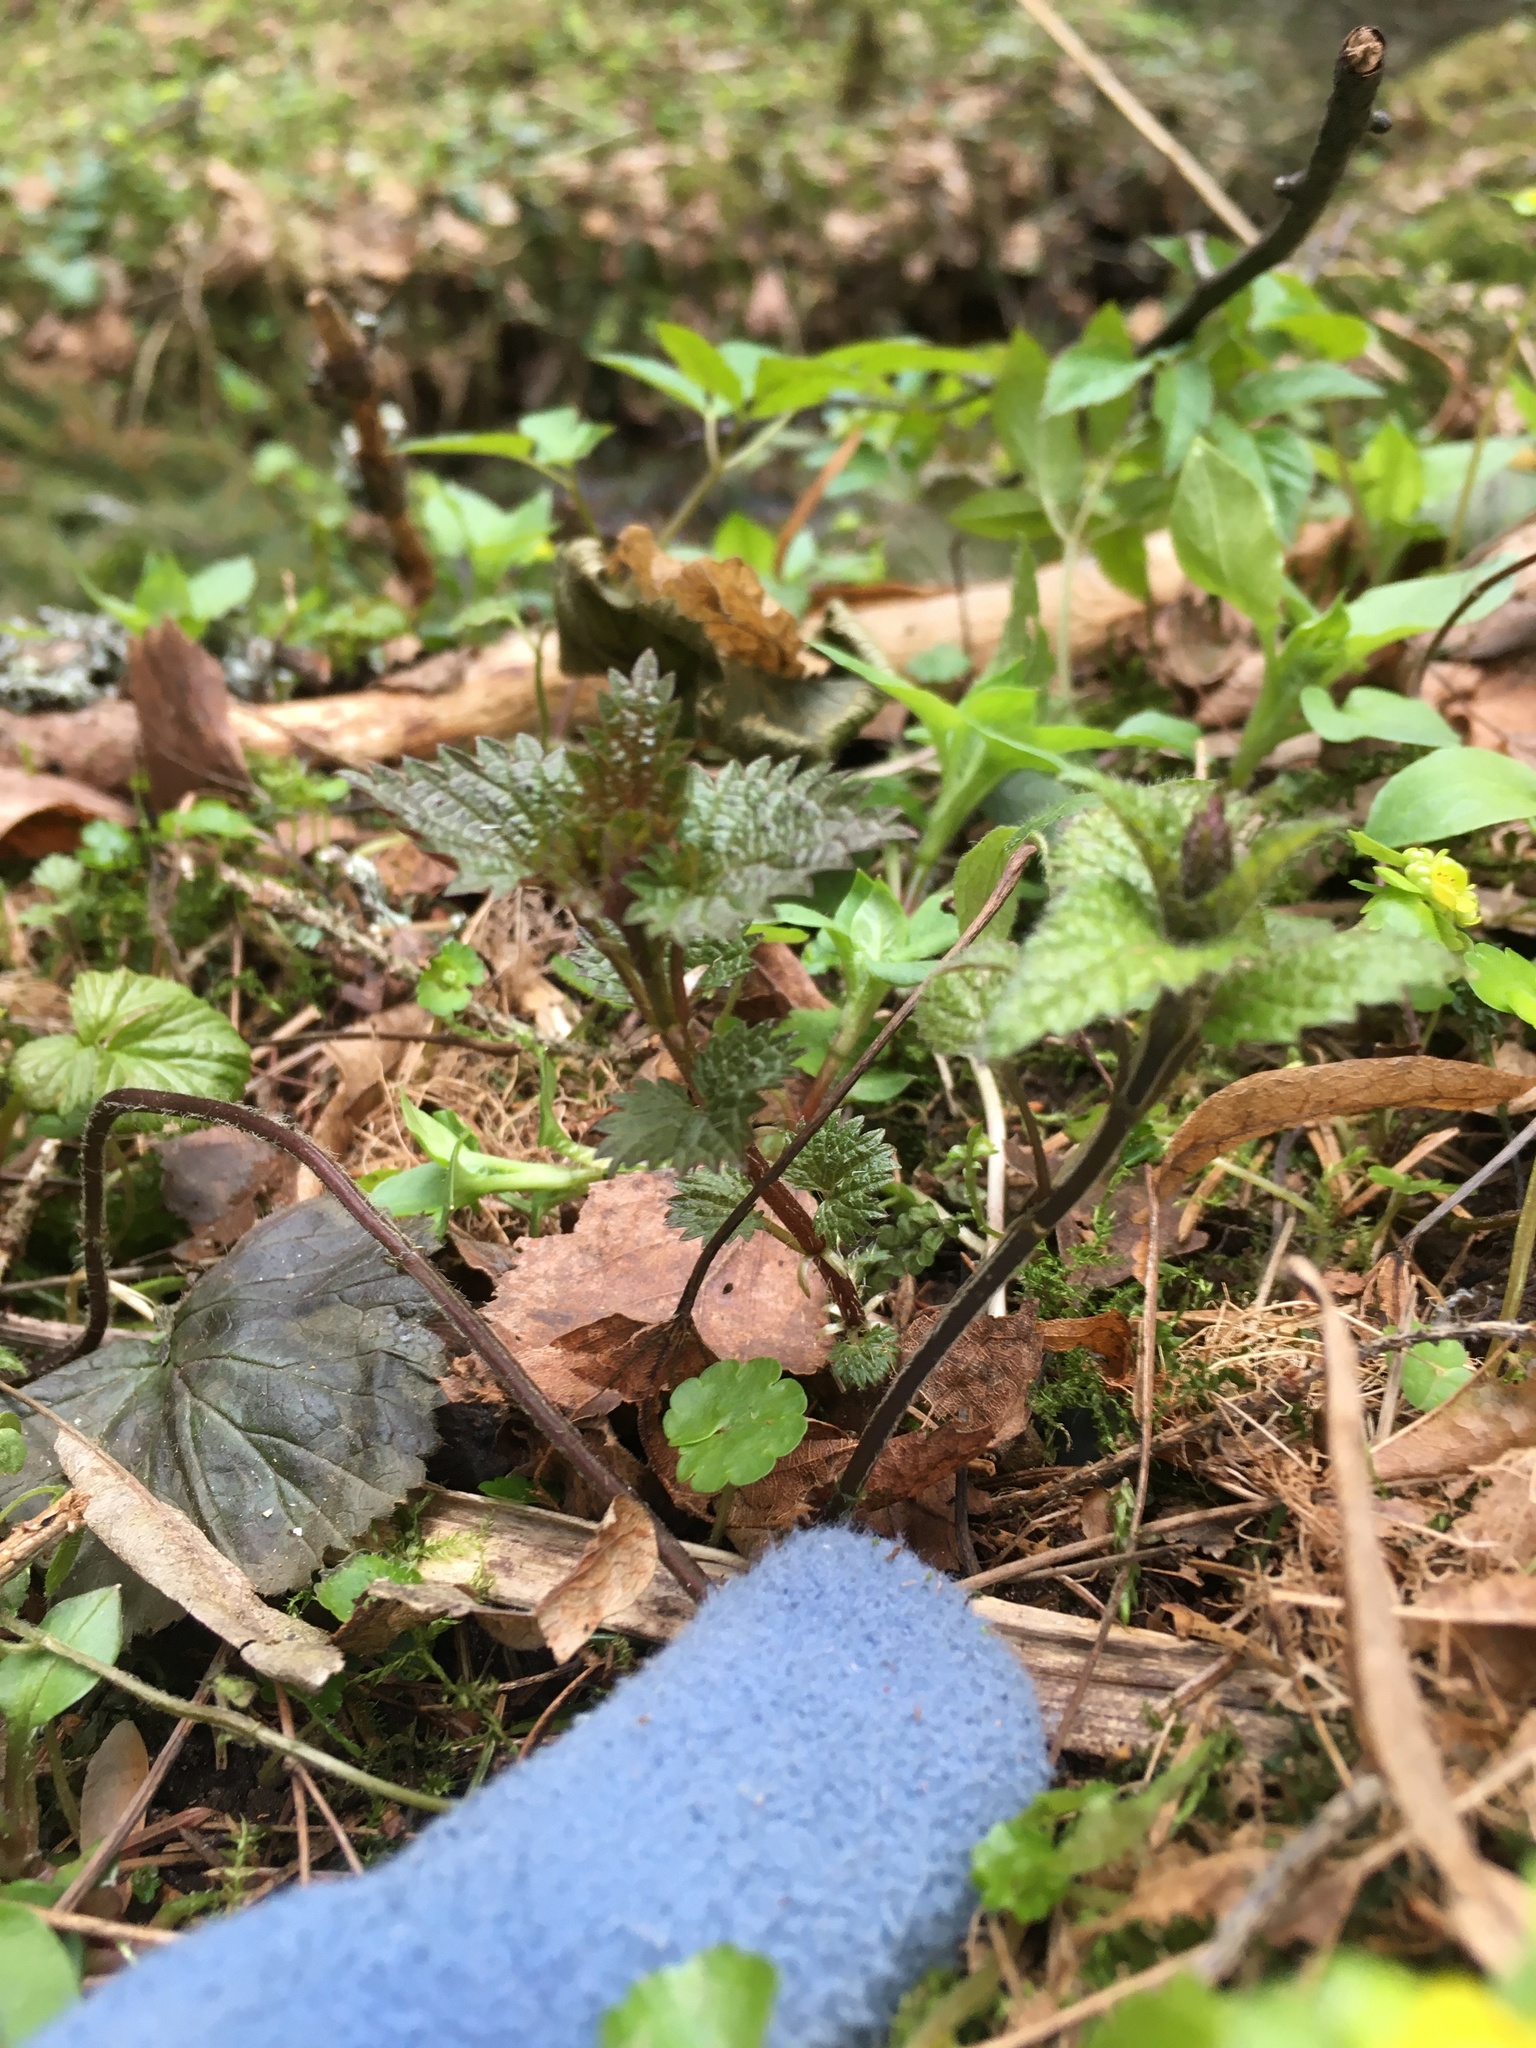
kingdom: Plantae
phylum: Tracheophyta
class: Magnoliopsida
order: Rosales
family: Urticaceae
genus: Urtica
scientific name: Urtica dioica
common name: Common nettle
